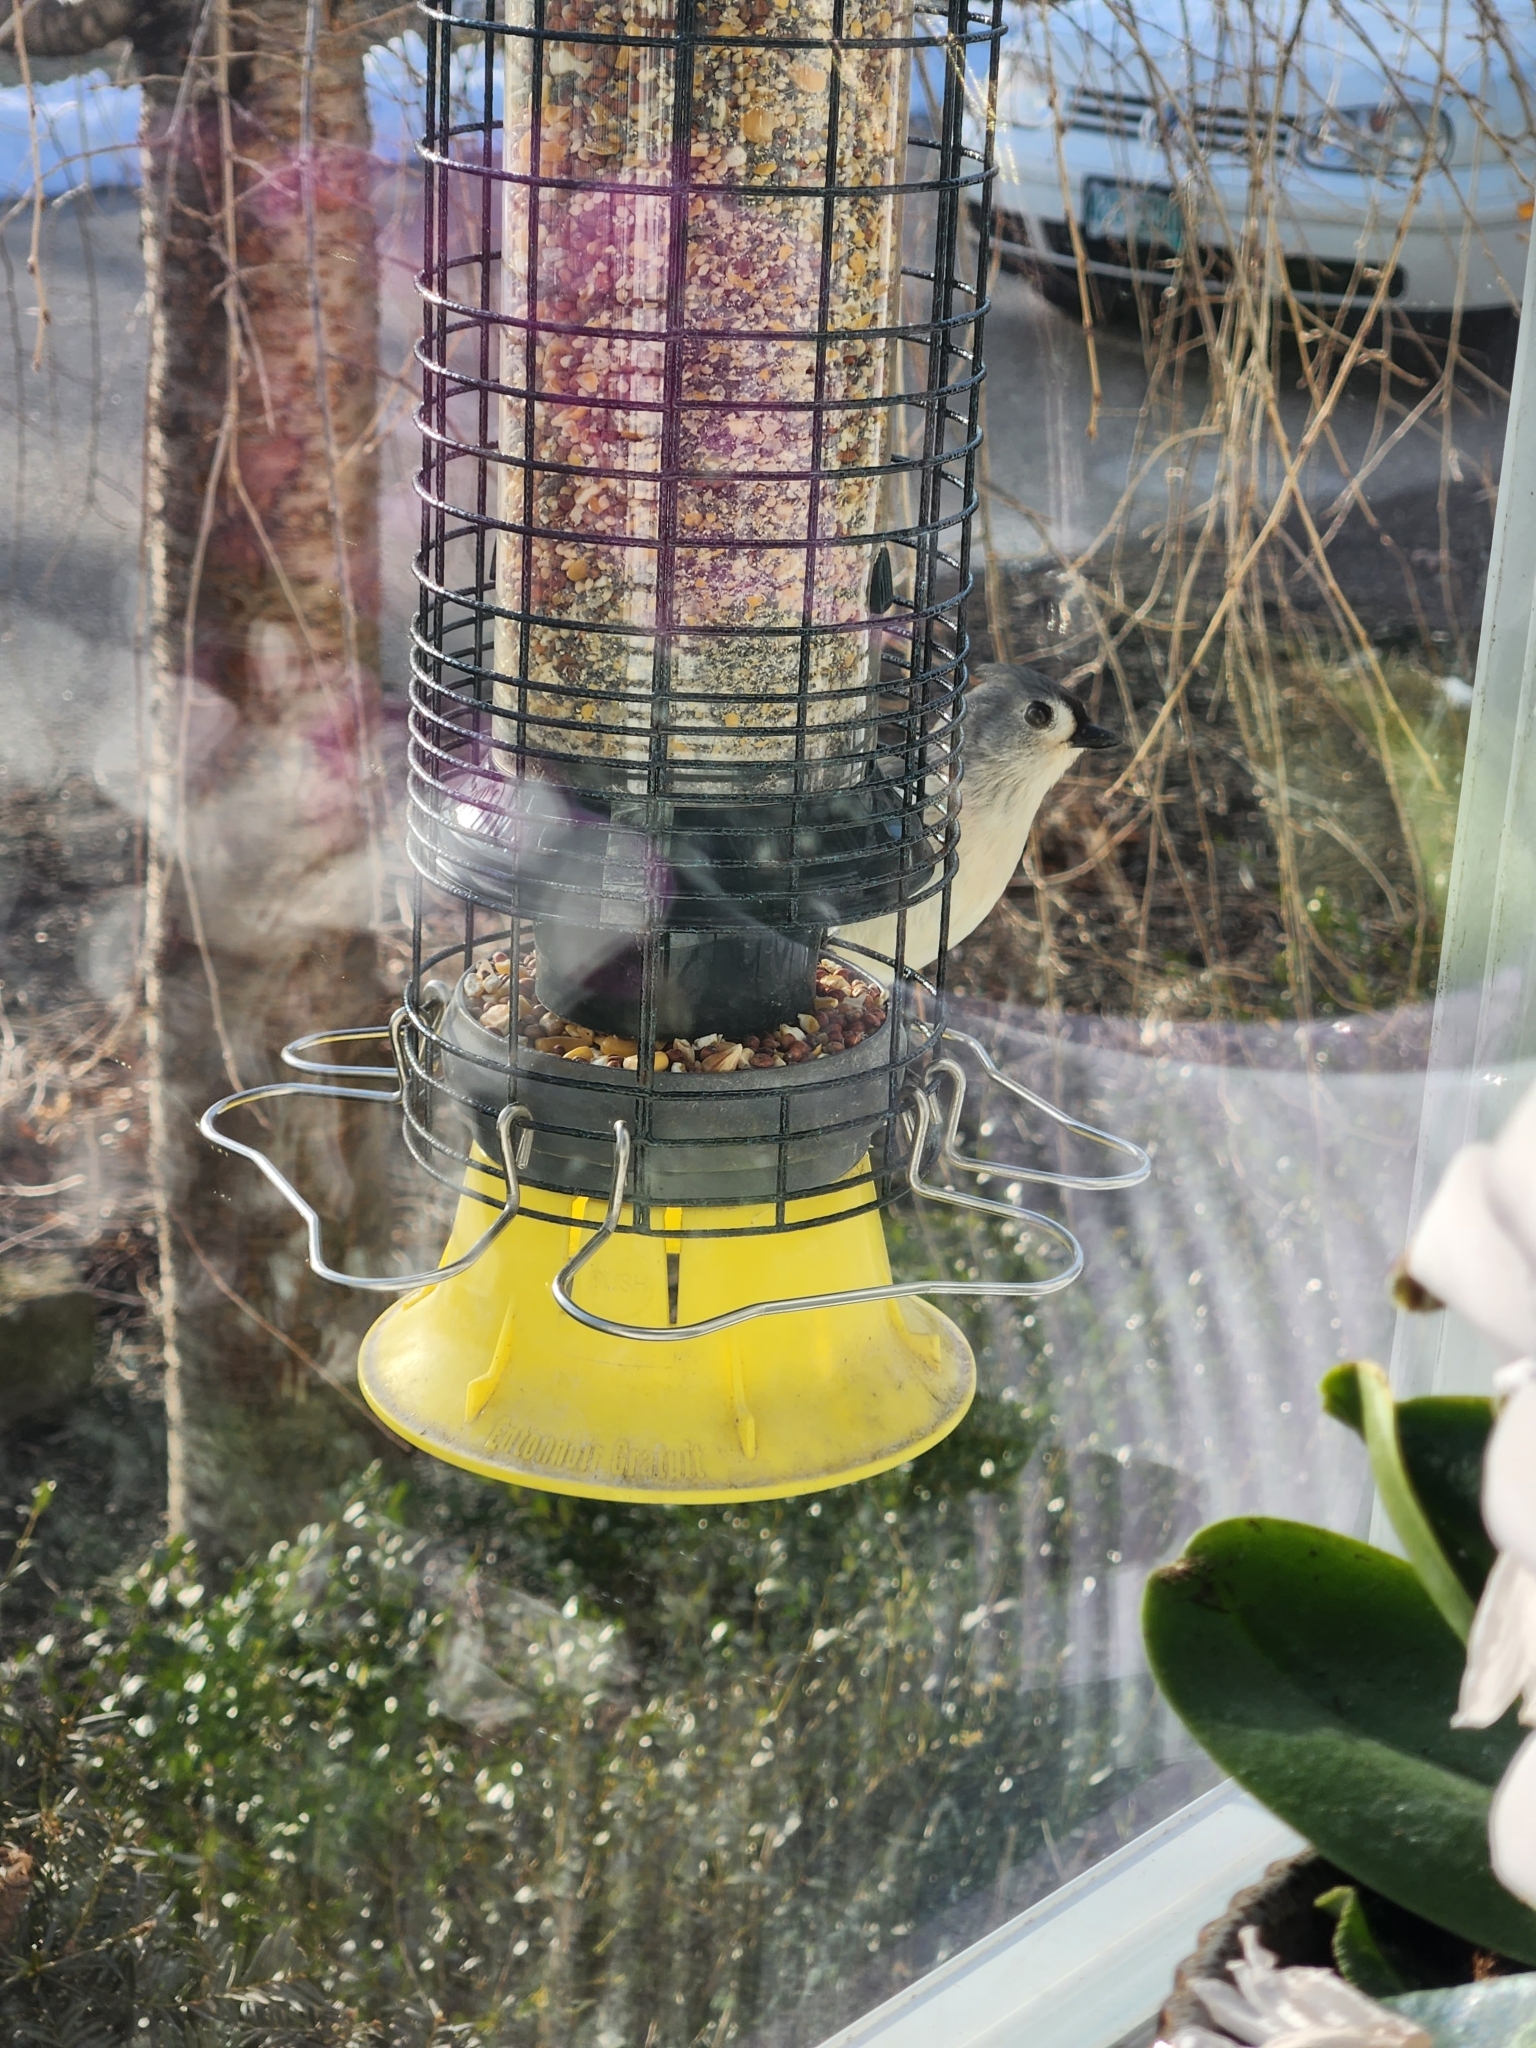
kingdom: Animalia
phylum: Chordata
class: Aves
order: Passeriformes
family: Paridae
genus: Baeolophus
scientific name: Baeolophus bicolor
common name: Tufted titmouse
